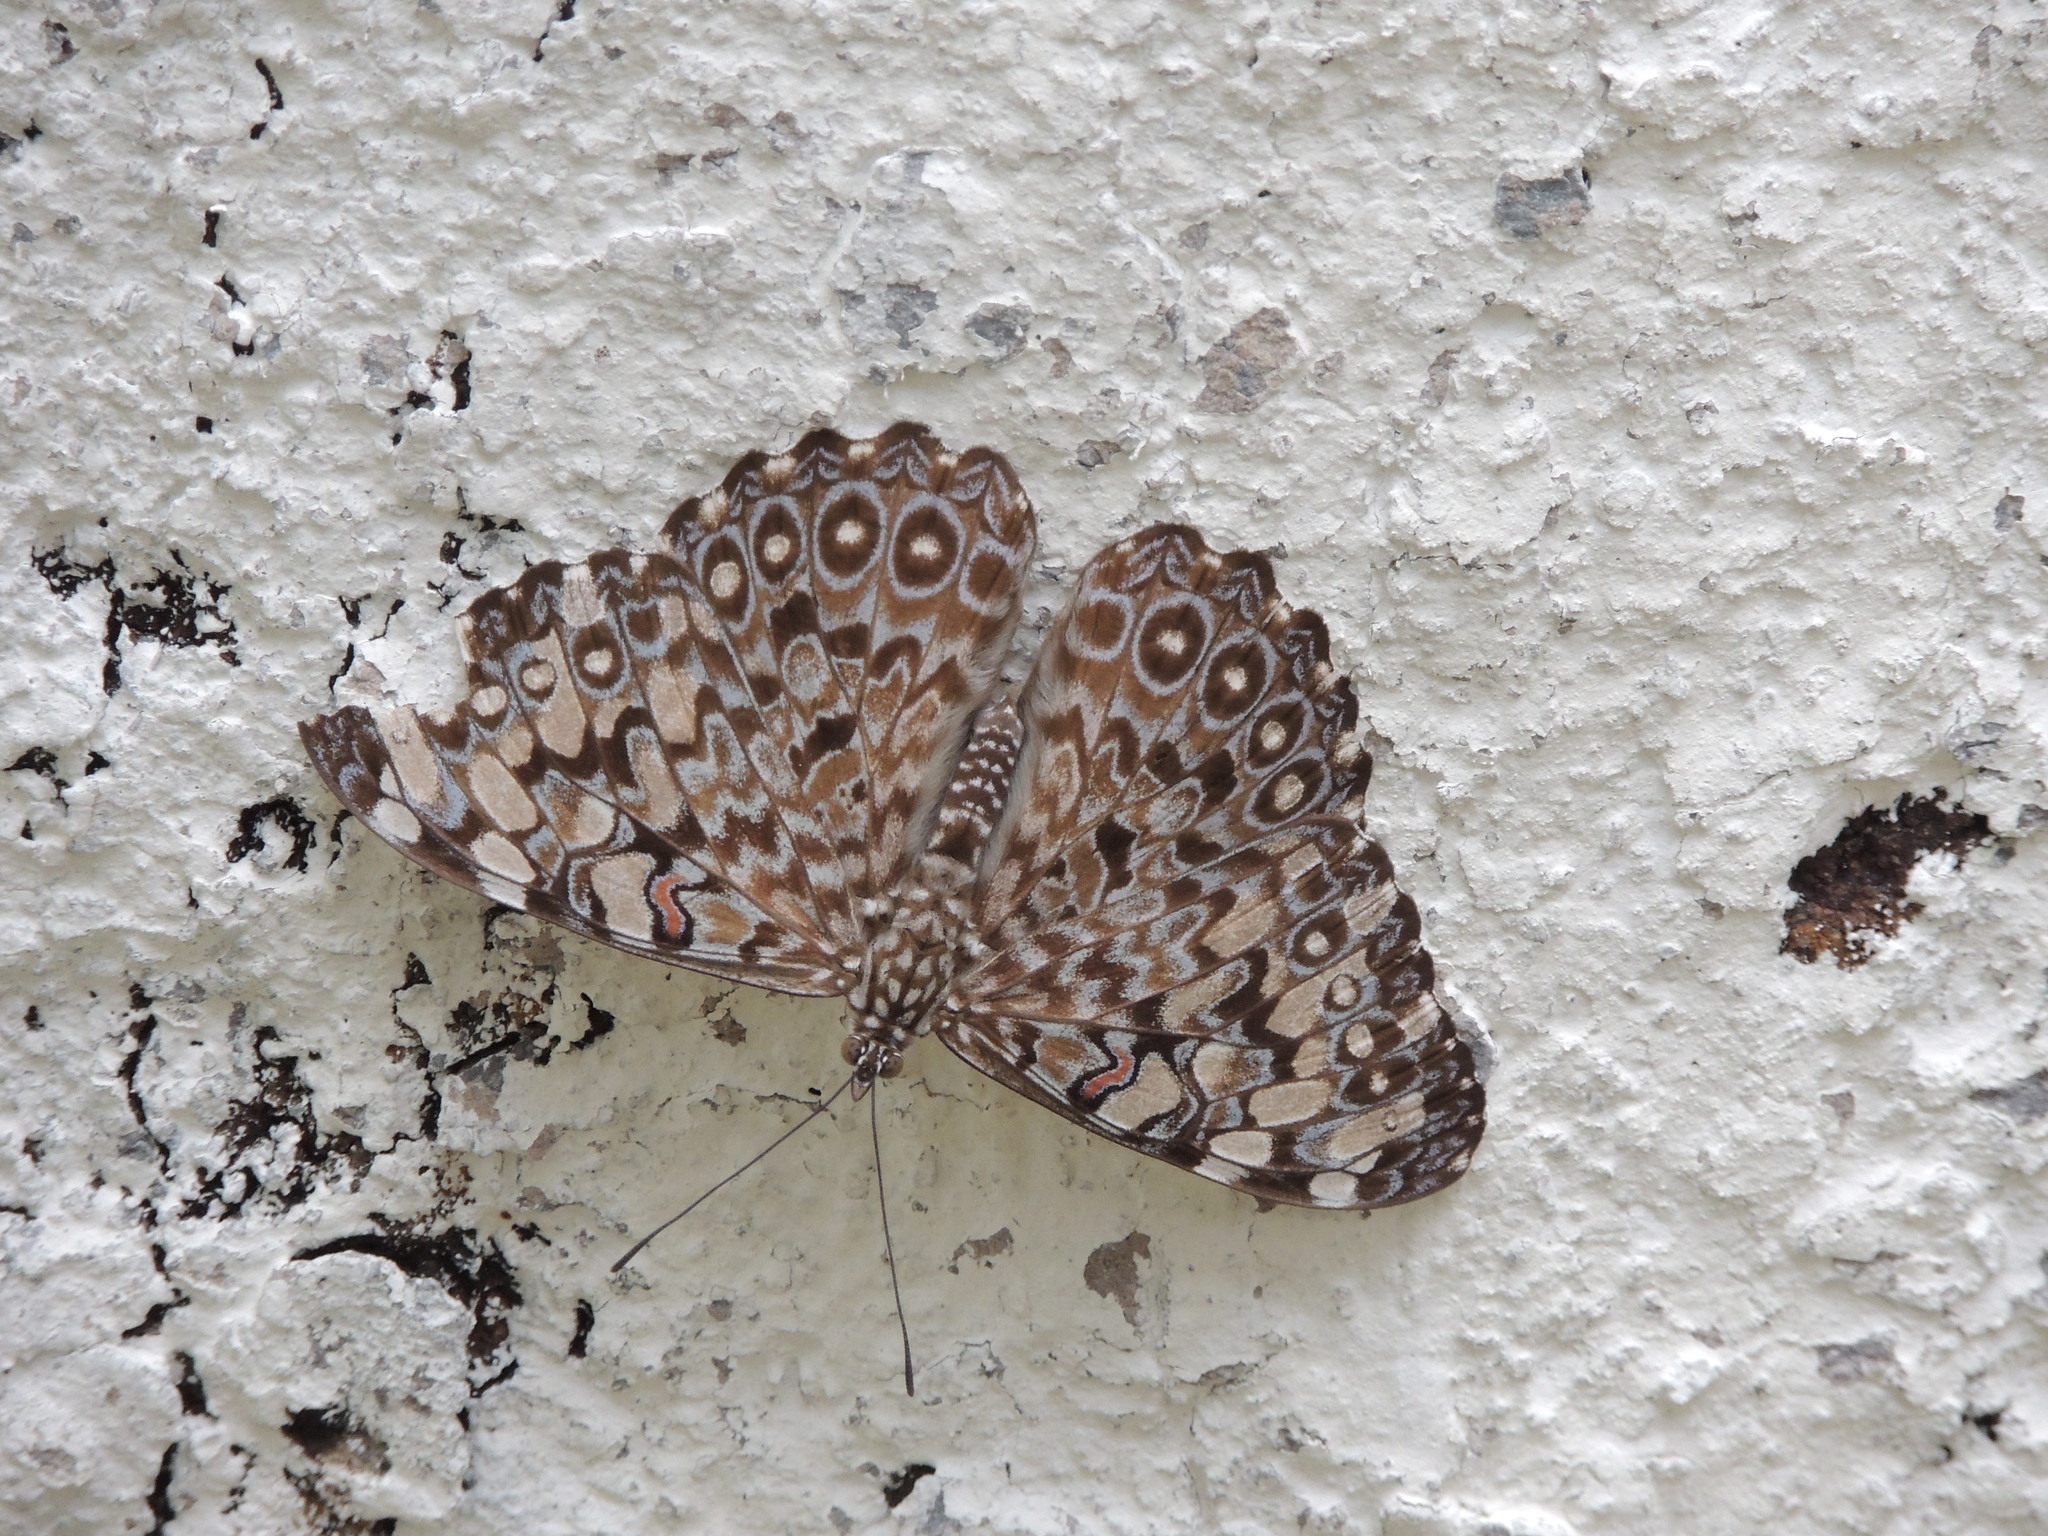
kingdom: Animalia
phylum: Arthropoda
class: Insecta
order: Lepidoptera
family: Nymphalidae
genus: Hamadryas
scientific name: Hamadryas feronia
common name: Variable cracker
